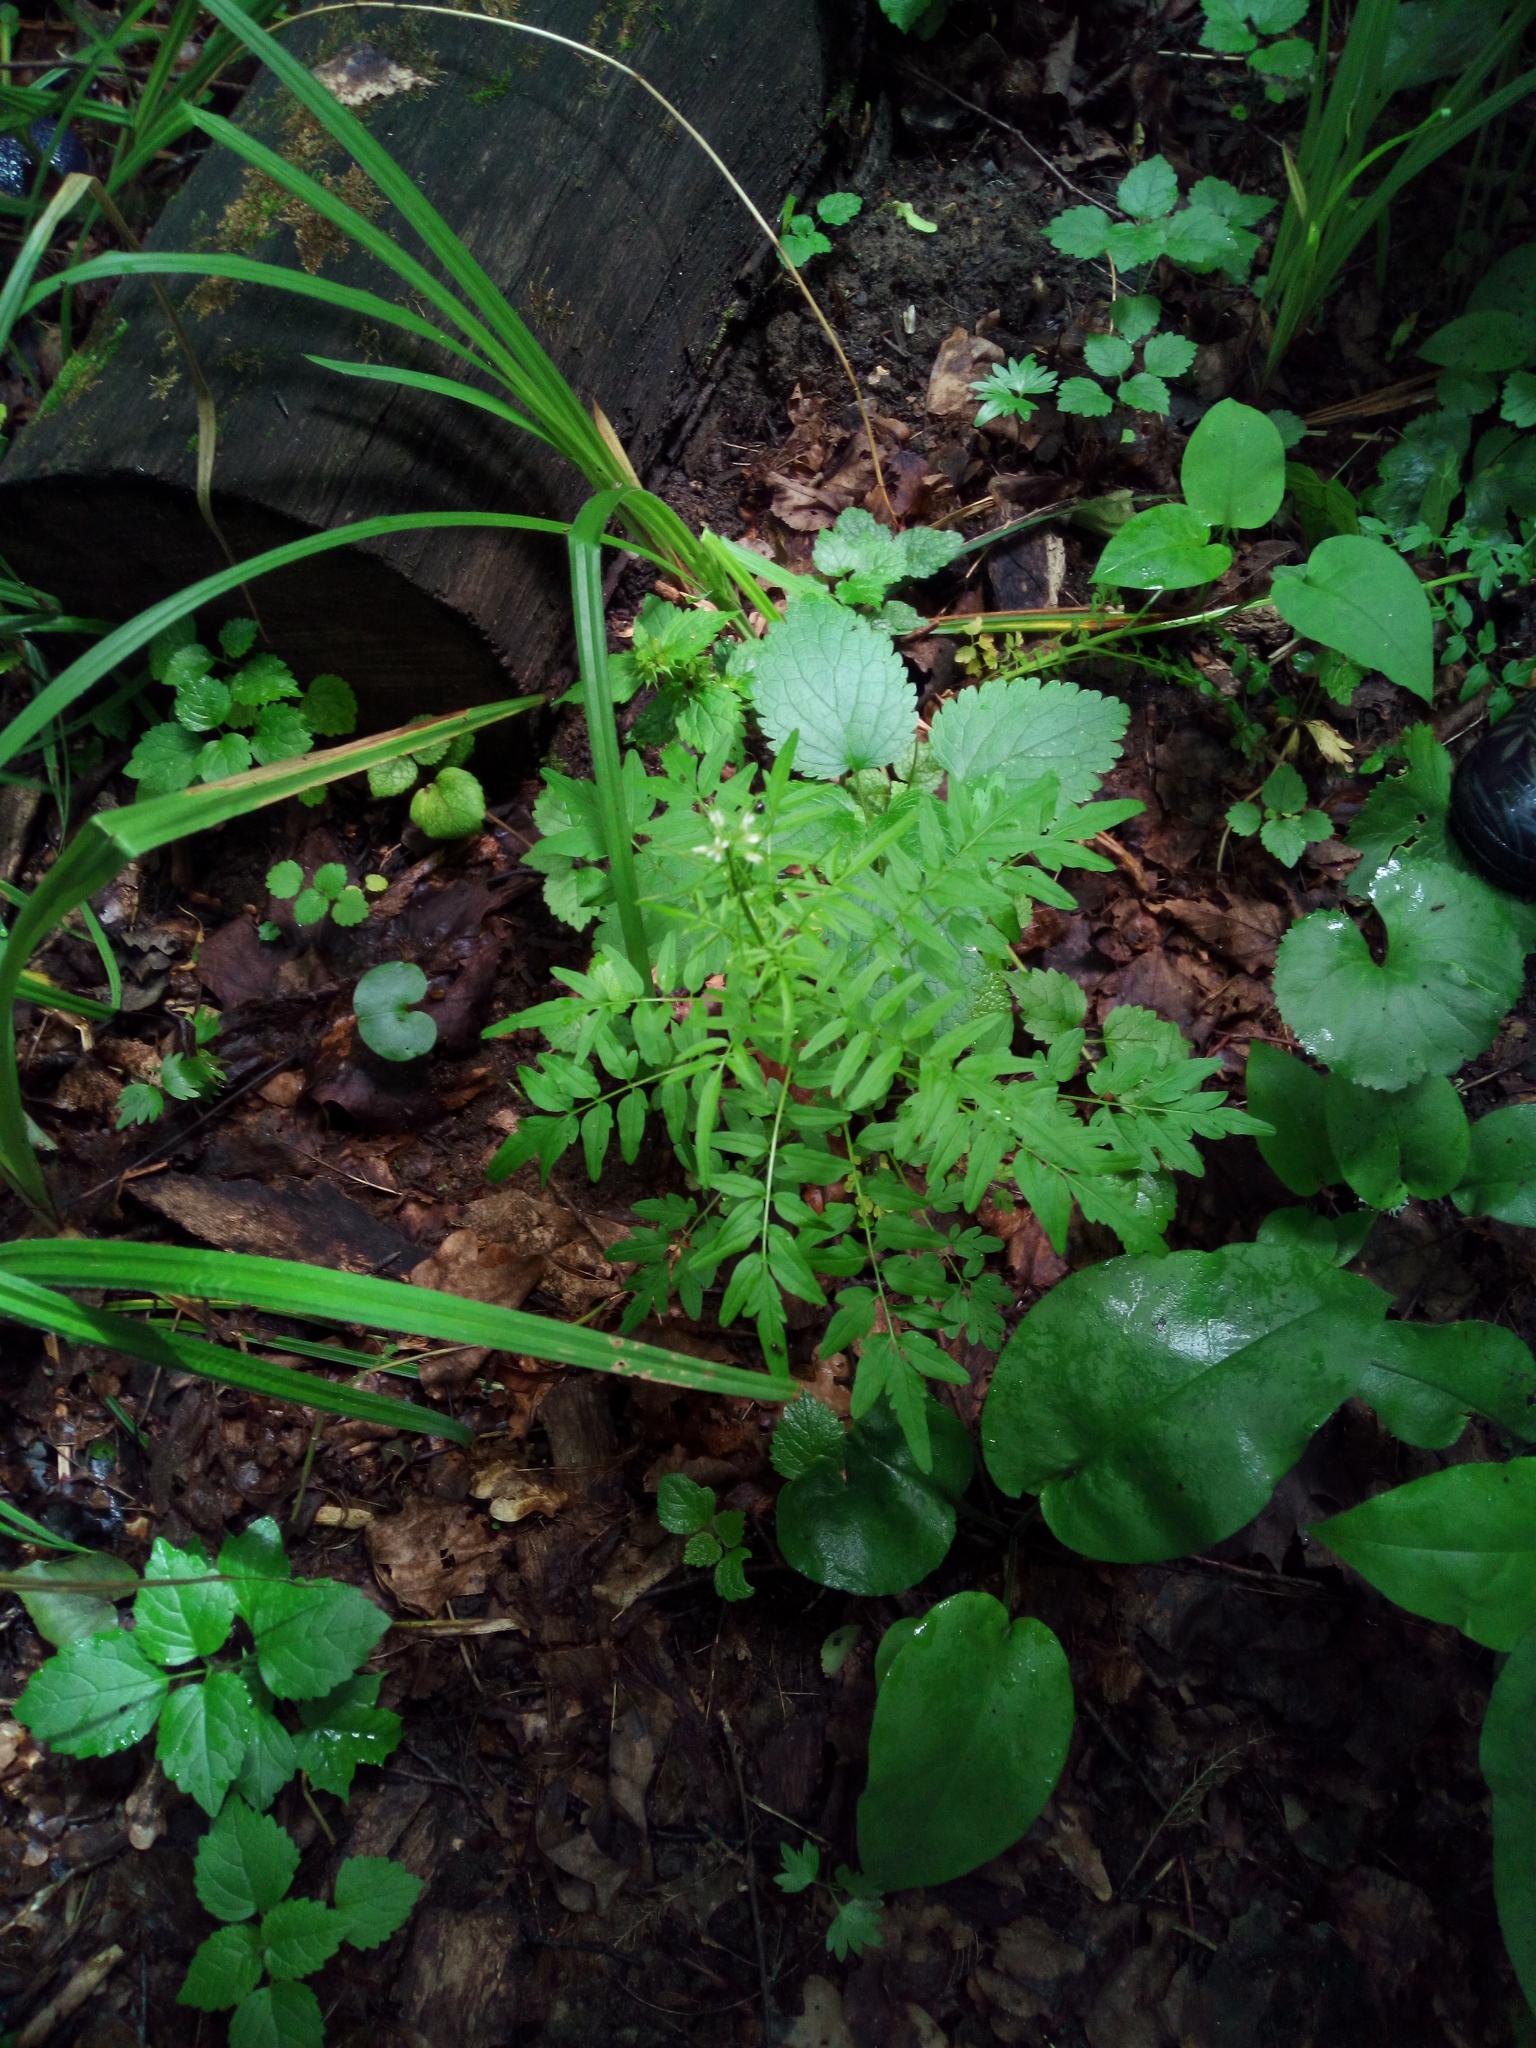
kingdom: Plantae
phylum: Tracheophyta
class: Magnoliopsida
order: Brassicales
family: Brassicaceae
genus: Cardamine
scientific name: Cardamine impatiens
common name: Narrow-leaved bitter-cress
